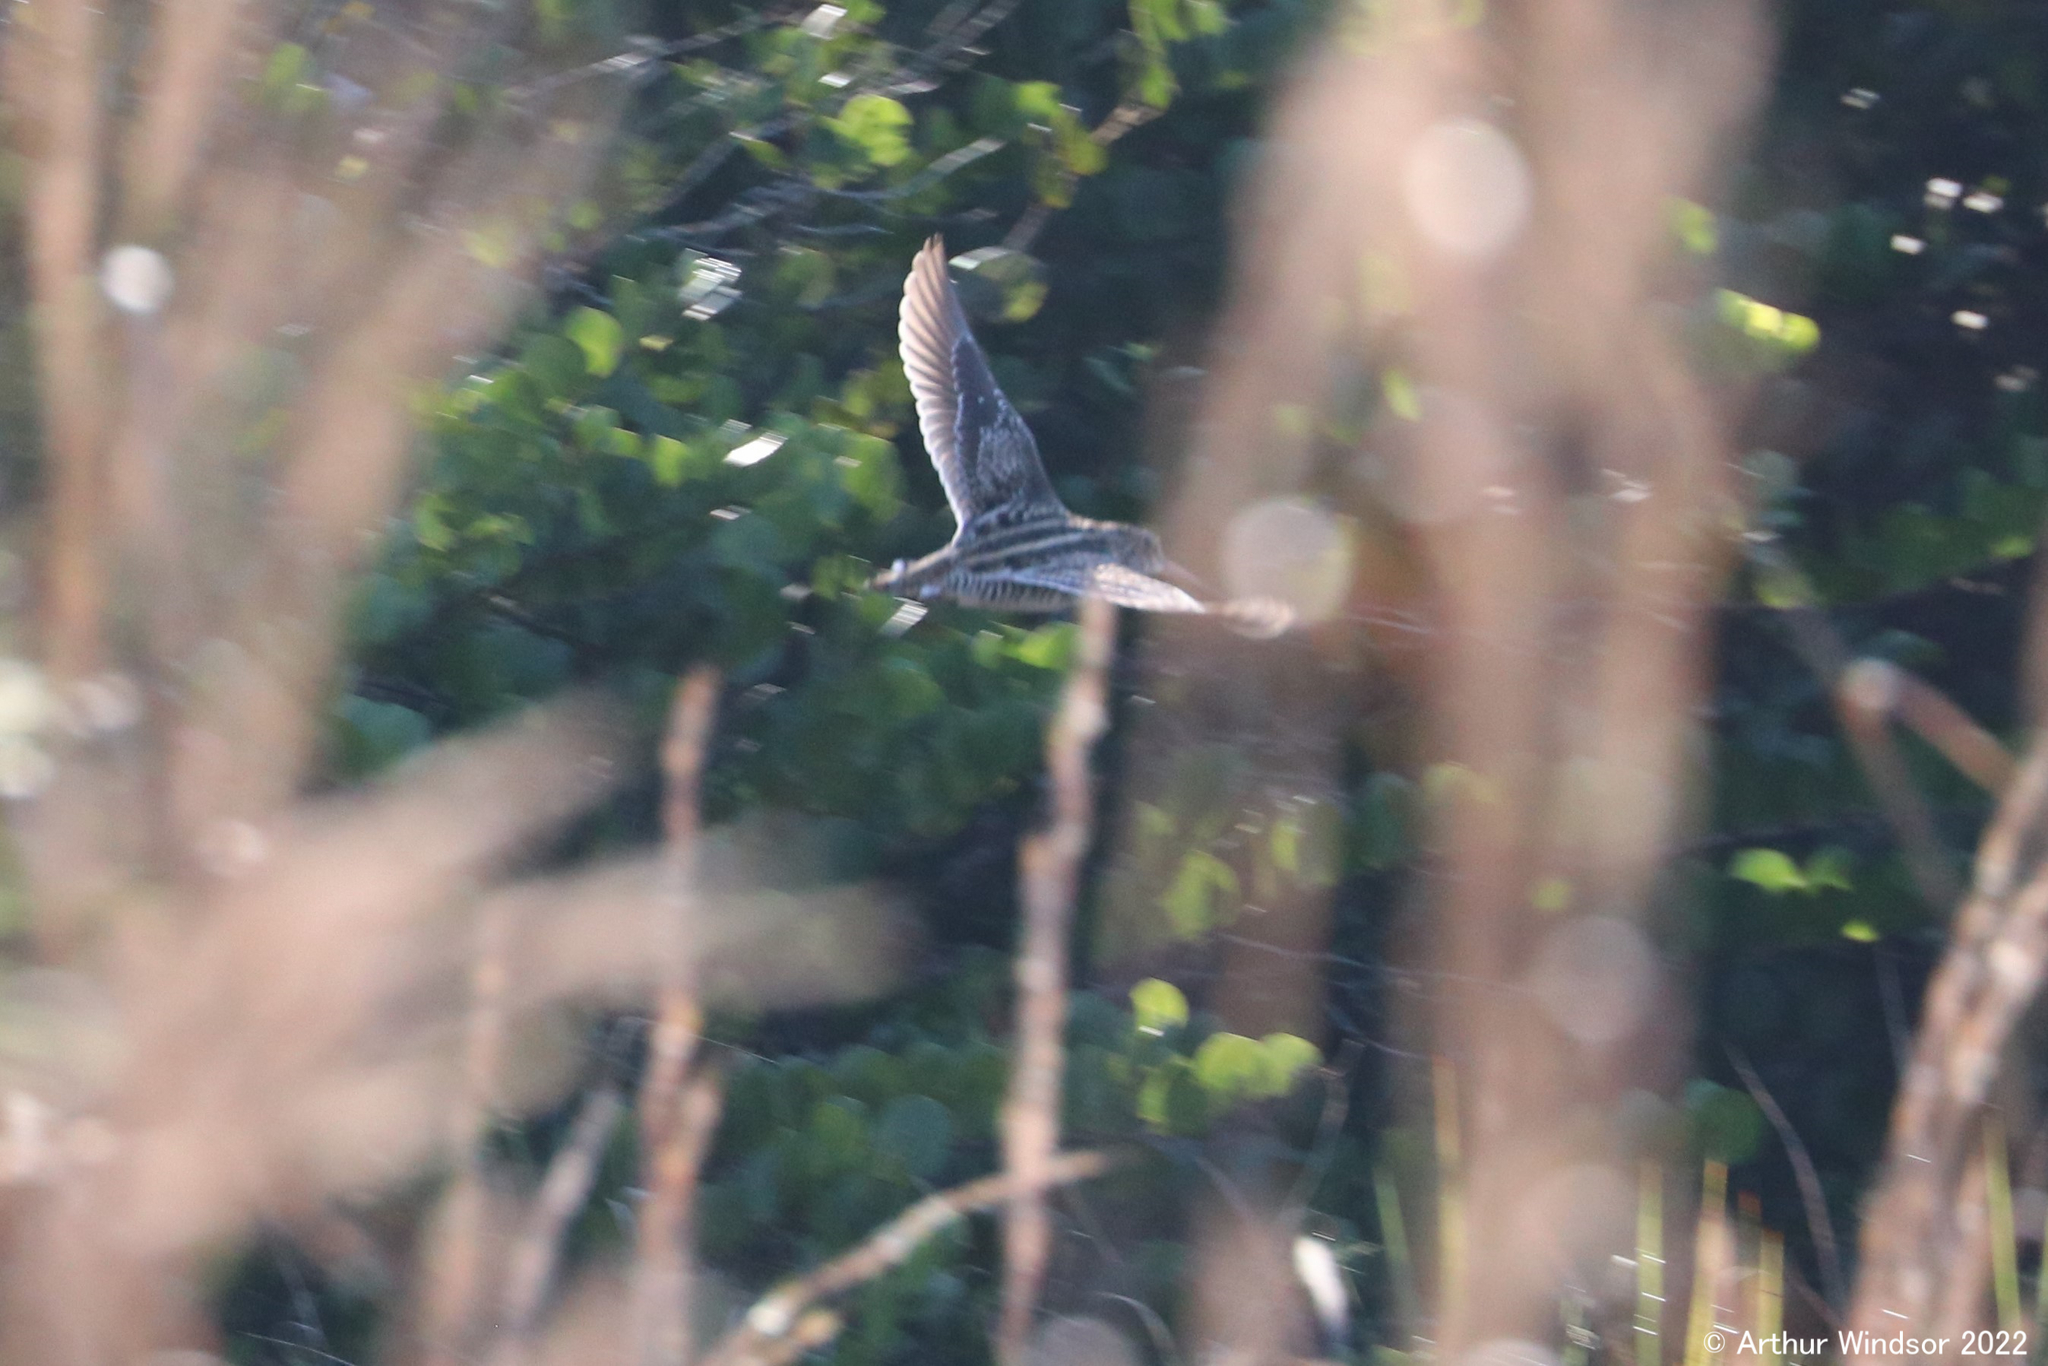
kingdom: Animalia
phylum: Chordata
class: Aves
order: Charadriiformes
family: Scolopacidae
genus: Gallinago
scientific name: Gallinago delicata
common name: Wilson's snipe
